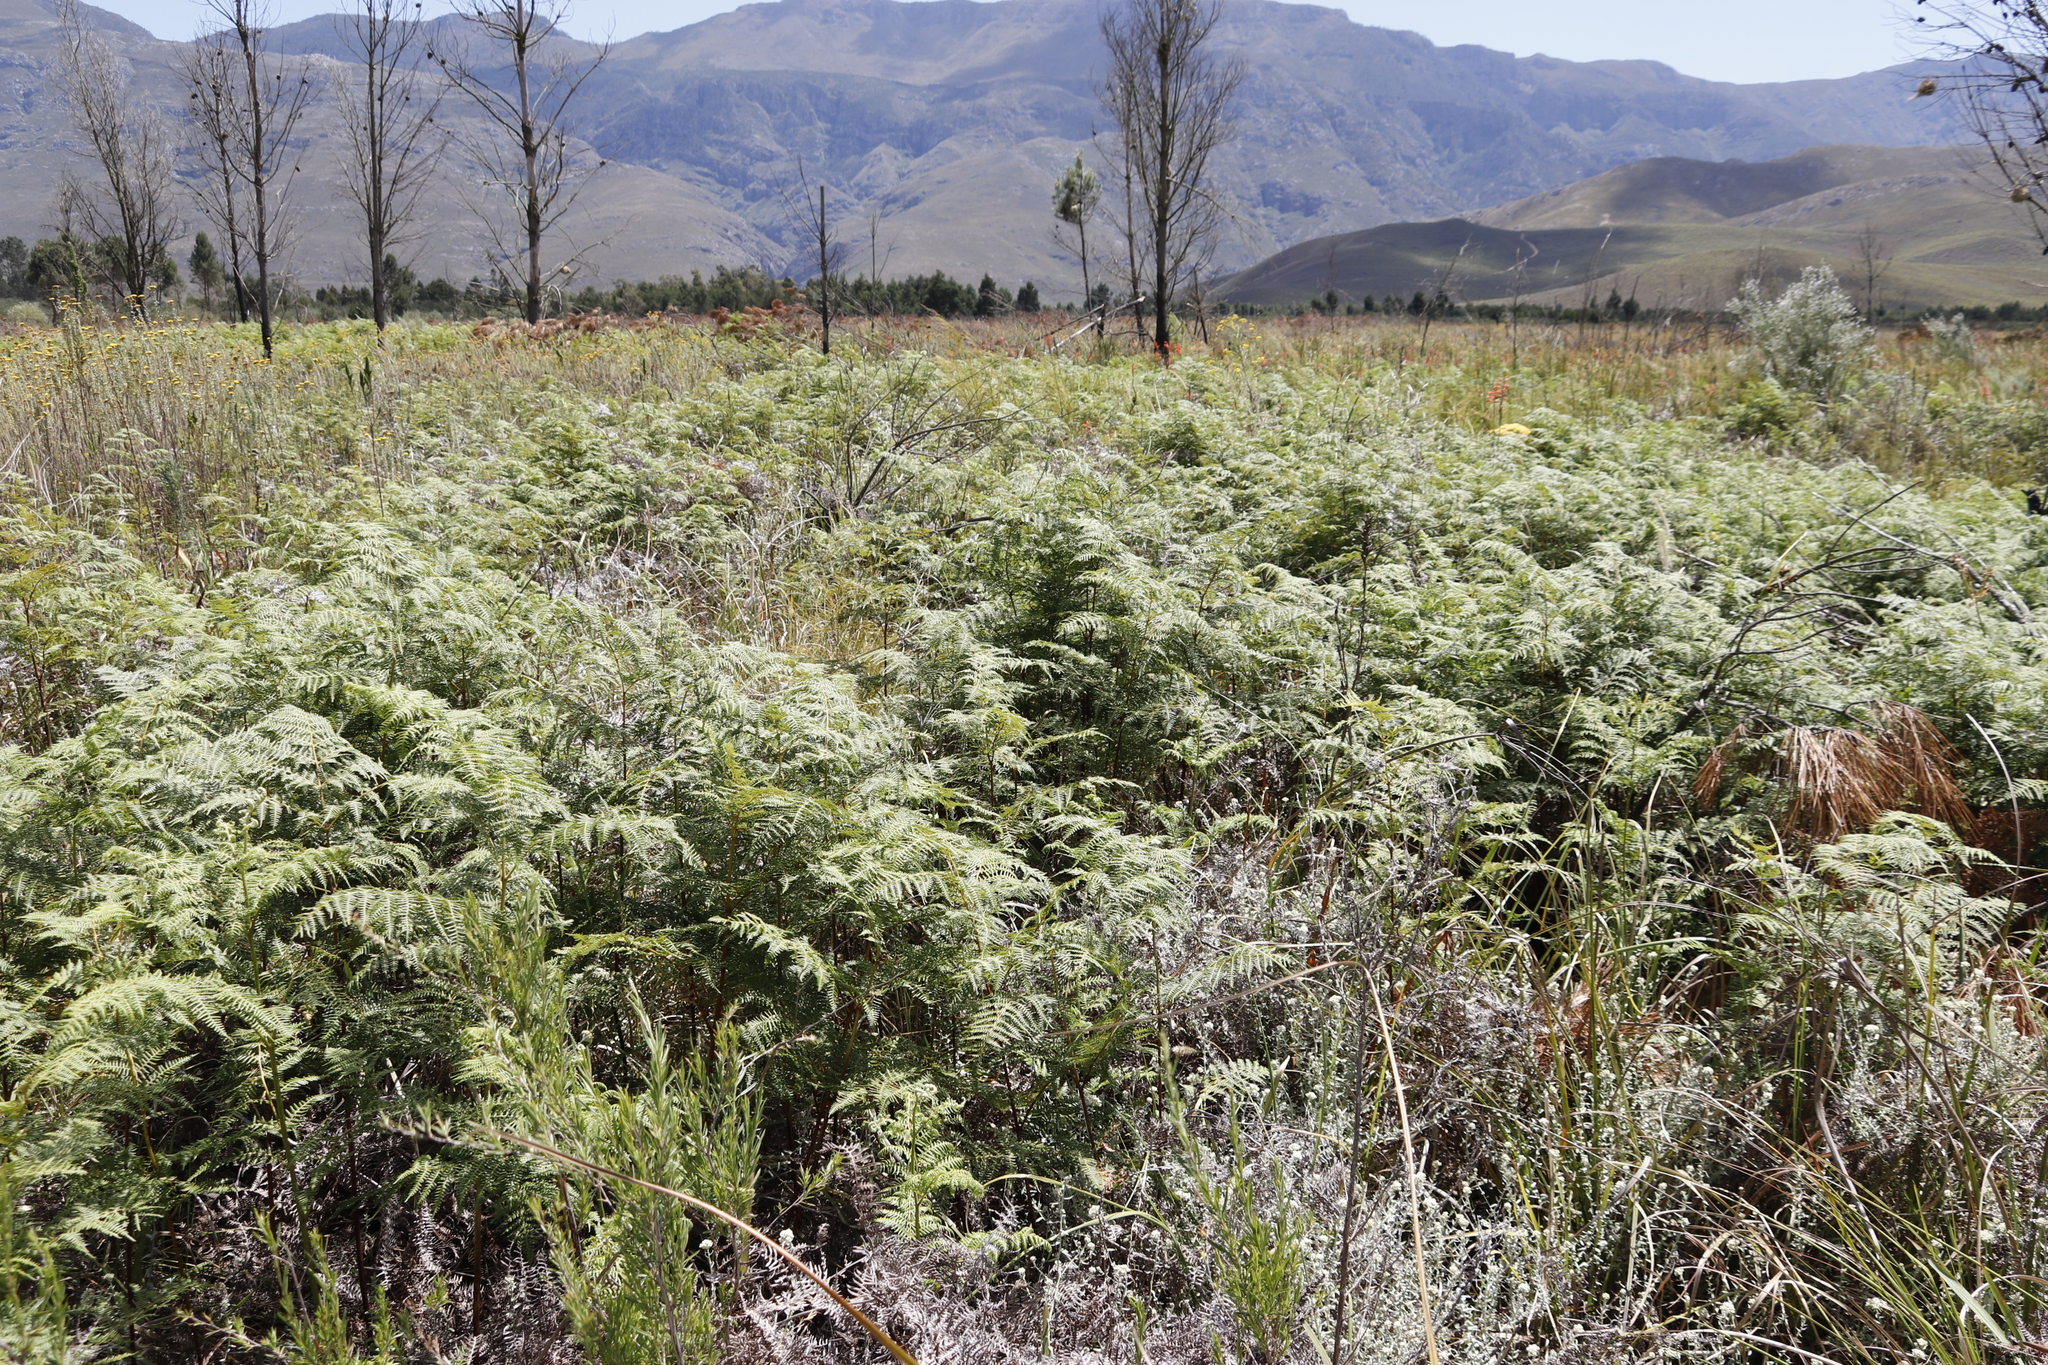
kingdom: Plantae
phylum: Tracheophyta
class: Polypodiopsida
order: Polypodiales
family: Dennstaedtiaceae
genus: Pteridium
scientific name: Pteridium aquilinum
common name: Bracken
